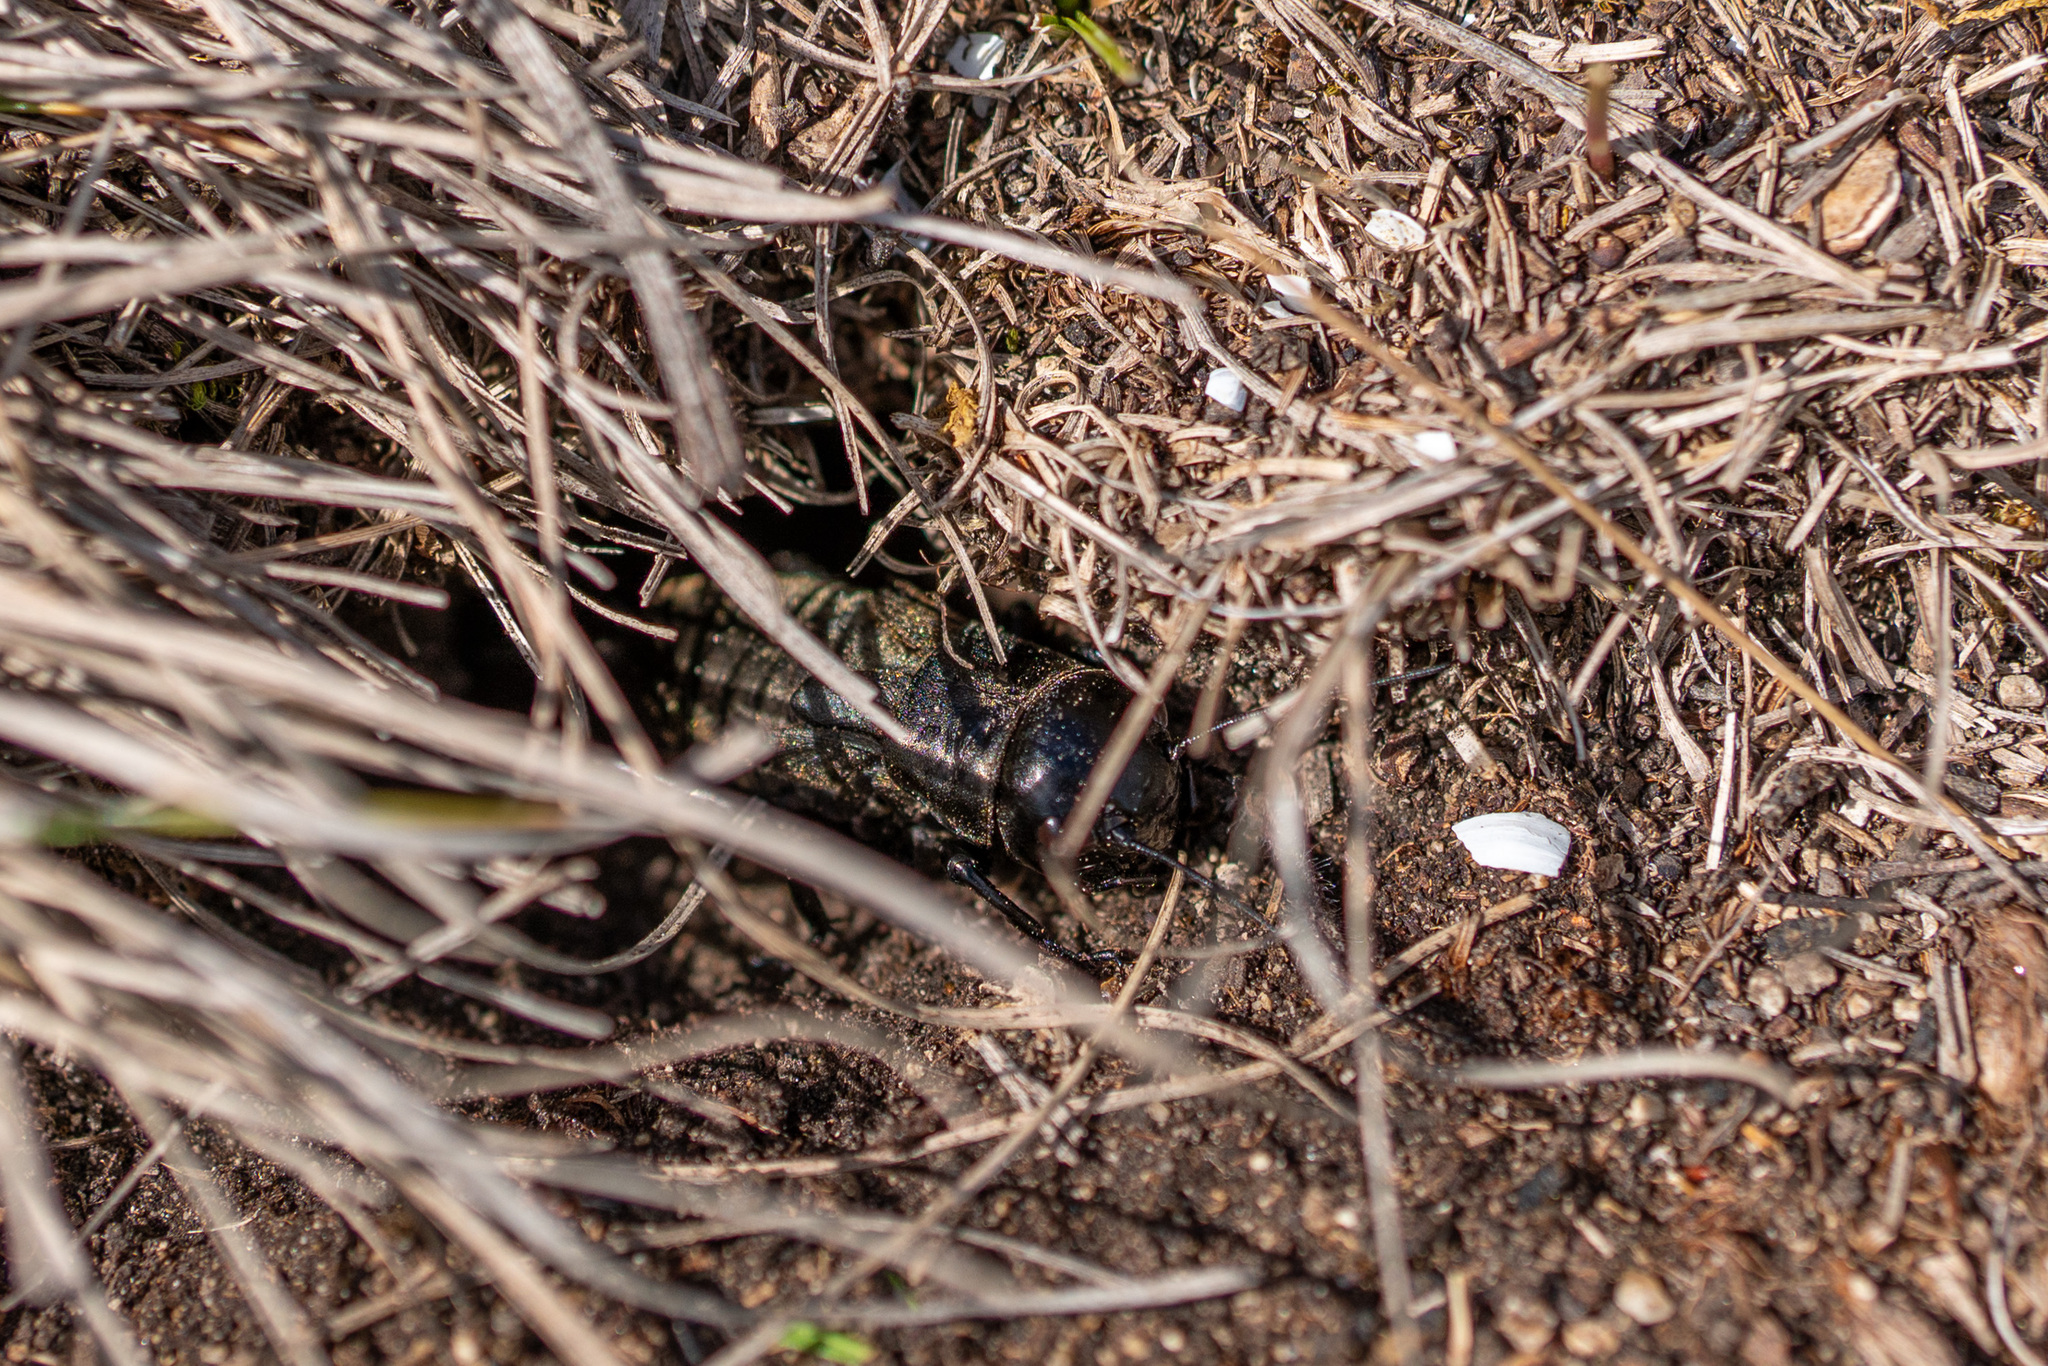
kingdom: Animalia
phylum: Arthropoda
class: Insecta
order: Orthoptera
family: Gryllidae
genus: Gryllus
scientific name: Gryllus campestris
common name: Field cricket
